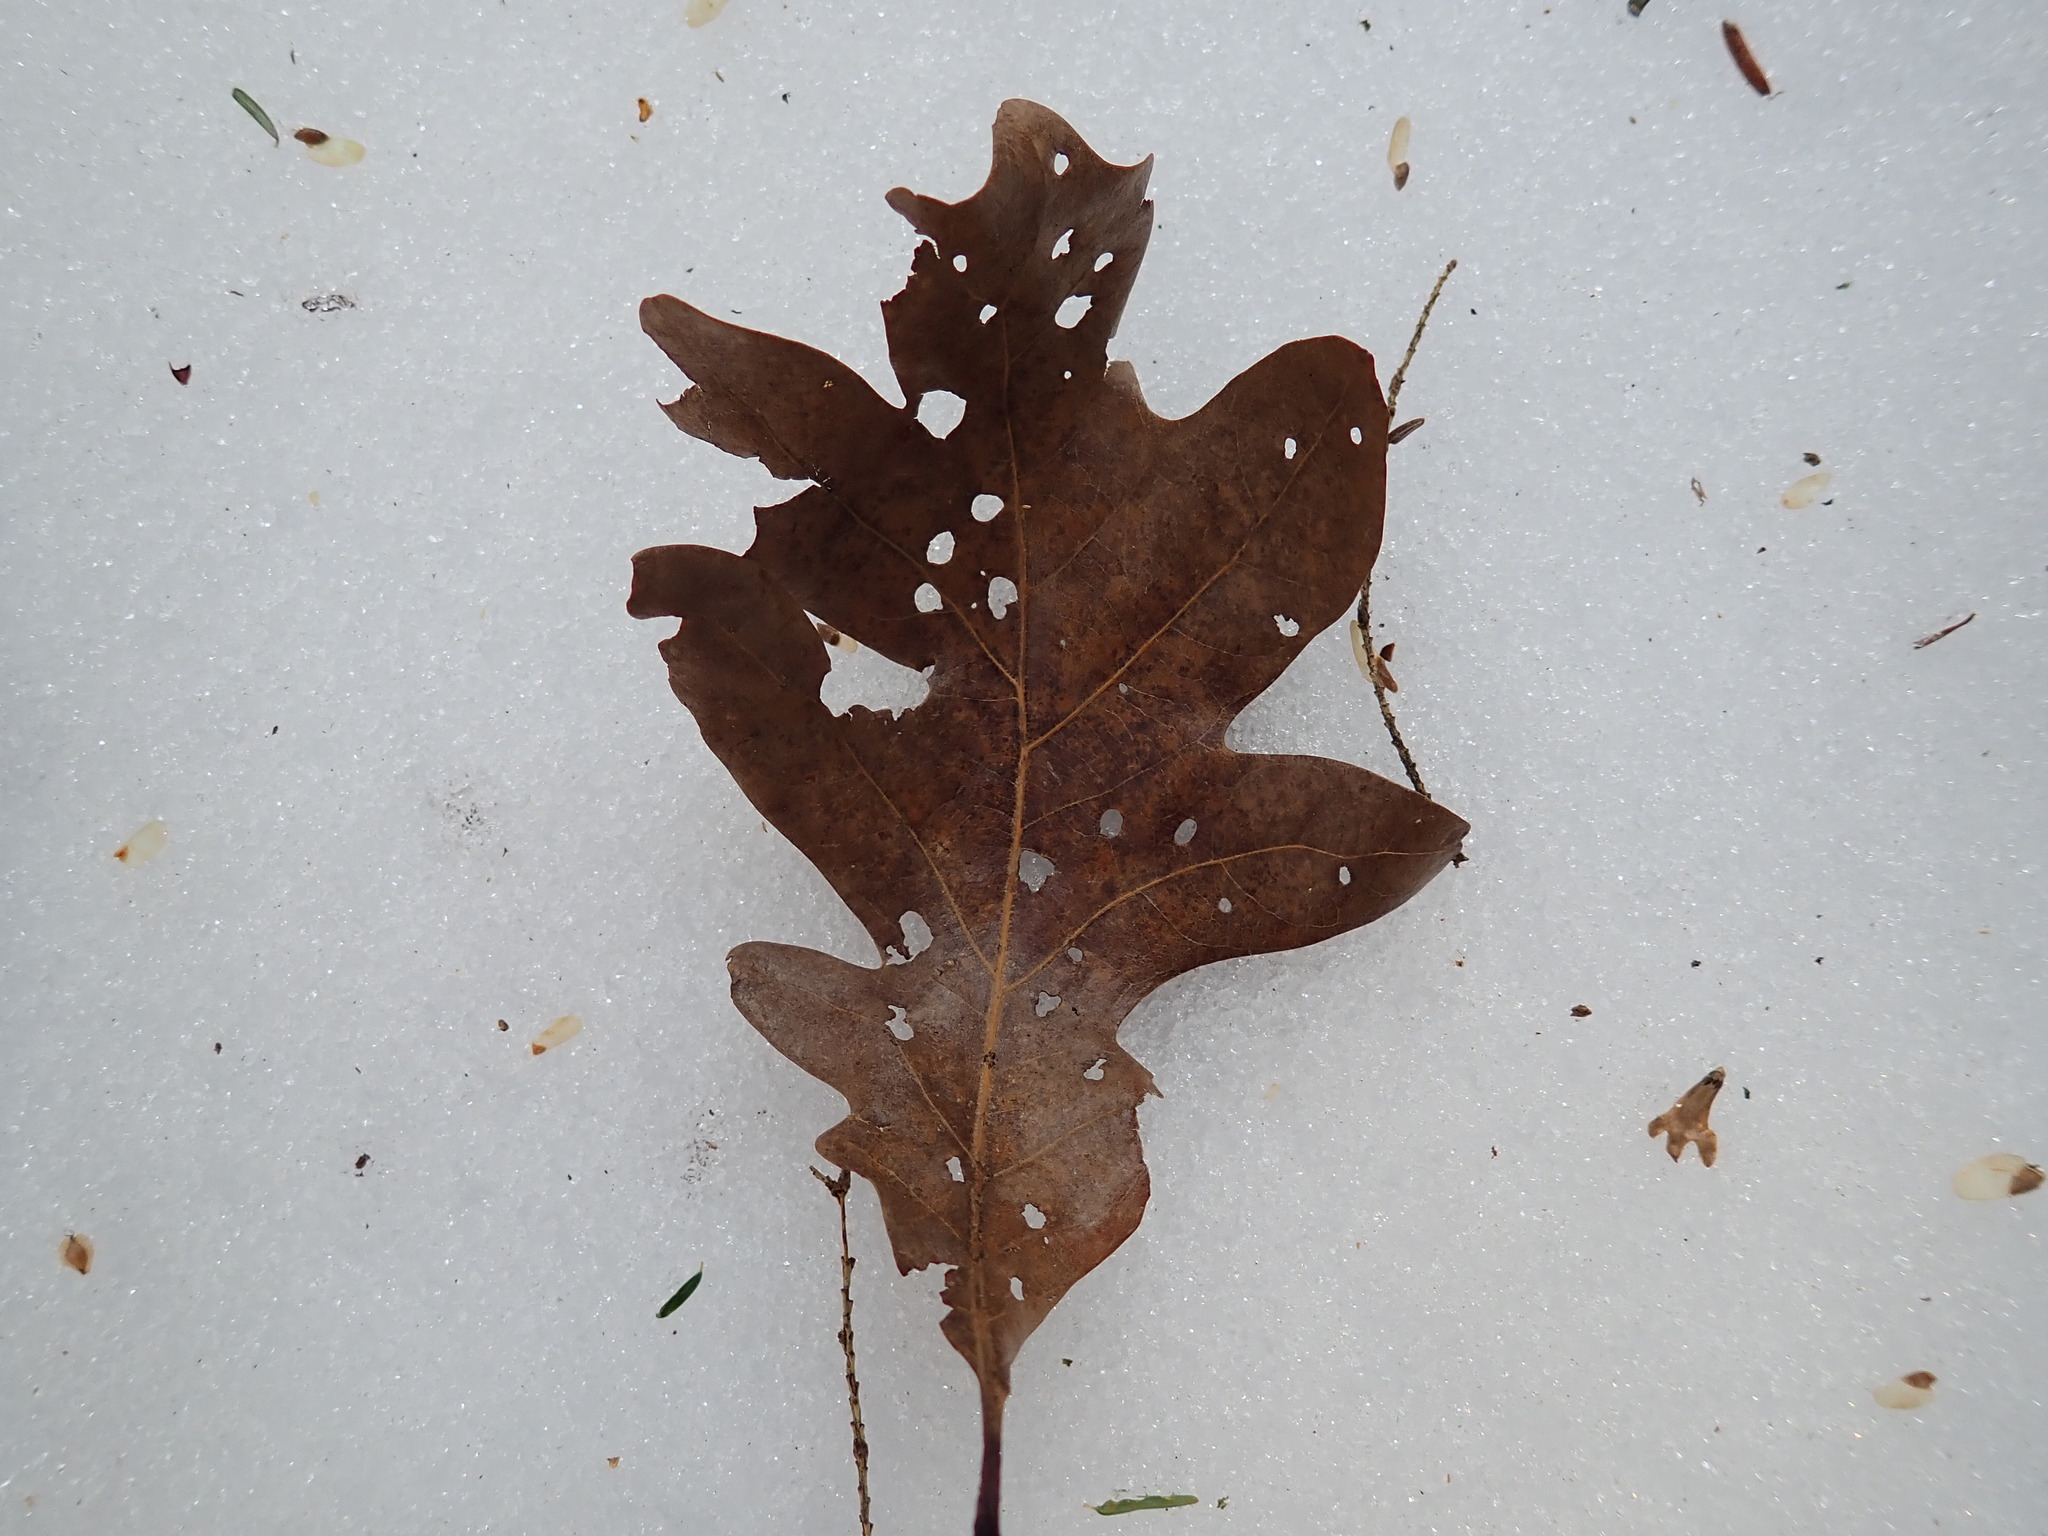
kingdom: Plantae
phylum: Tracheophyta
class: Magnoliopsida
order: Fagales
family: Fagaceae
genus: Quercus
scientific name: Quercus alba
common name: White oak
